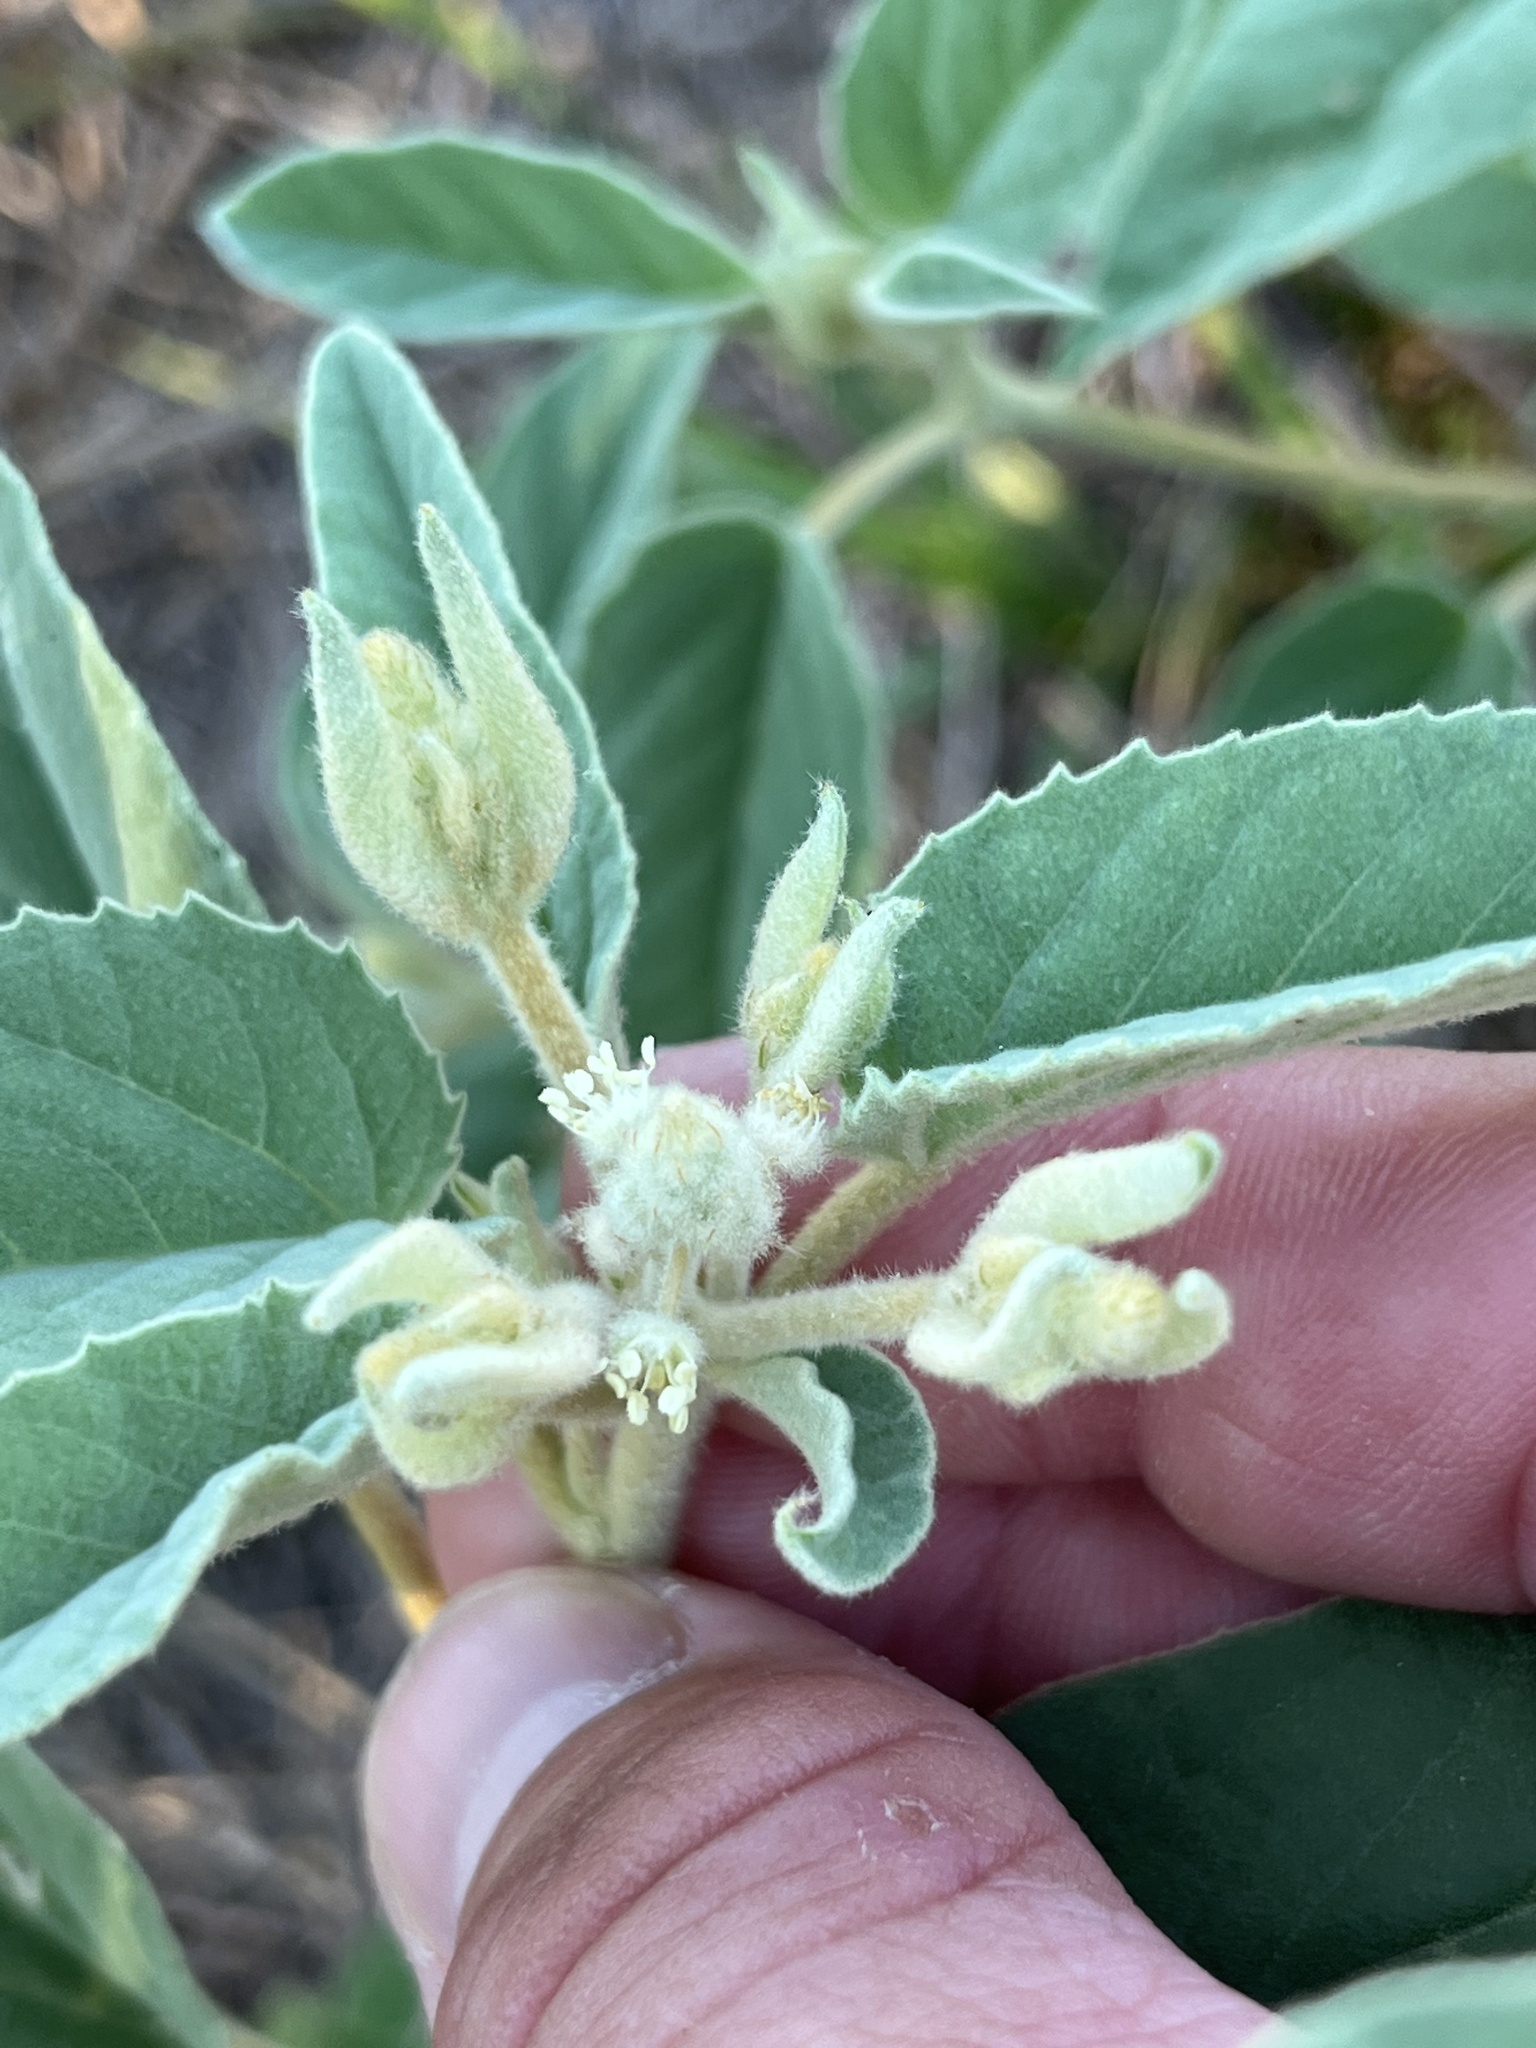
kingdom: Plantae
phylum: Tracheophyta
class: Magnoliopsida
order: Malpighiales
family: Euphorbiaceae
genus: Croton
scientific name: Croton lindheimeri
